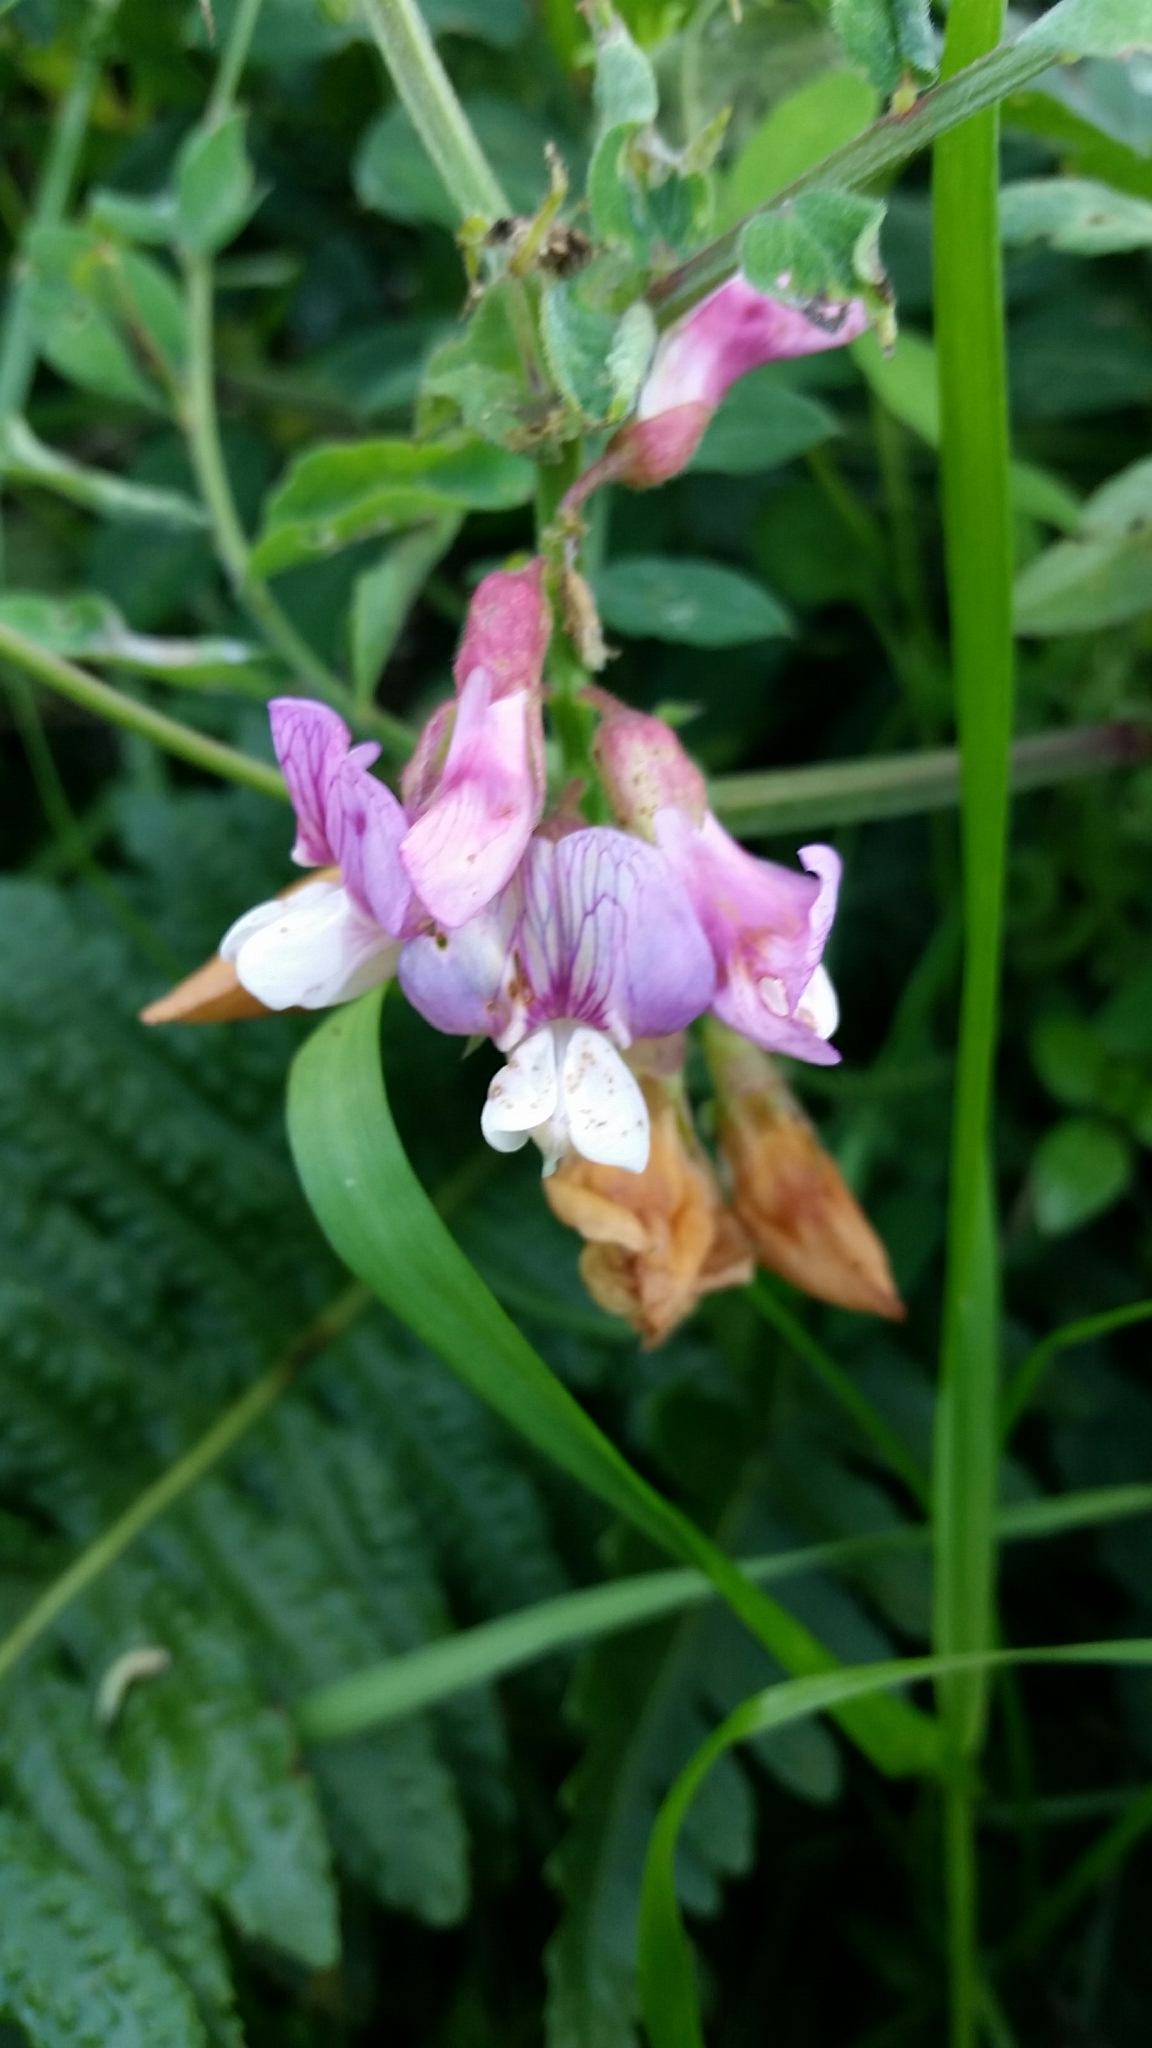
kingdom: Plantae
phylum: Tracheophyta
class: Magnoliopsida
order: Fabales
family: Fabaceae
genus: Lathyrus
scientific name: Lathyrus vestitus
